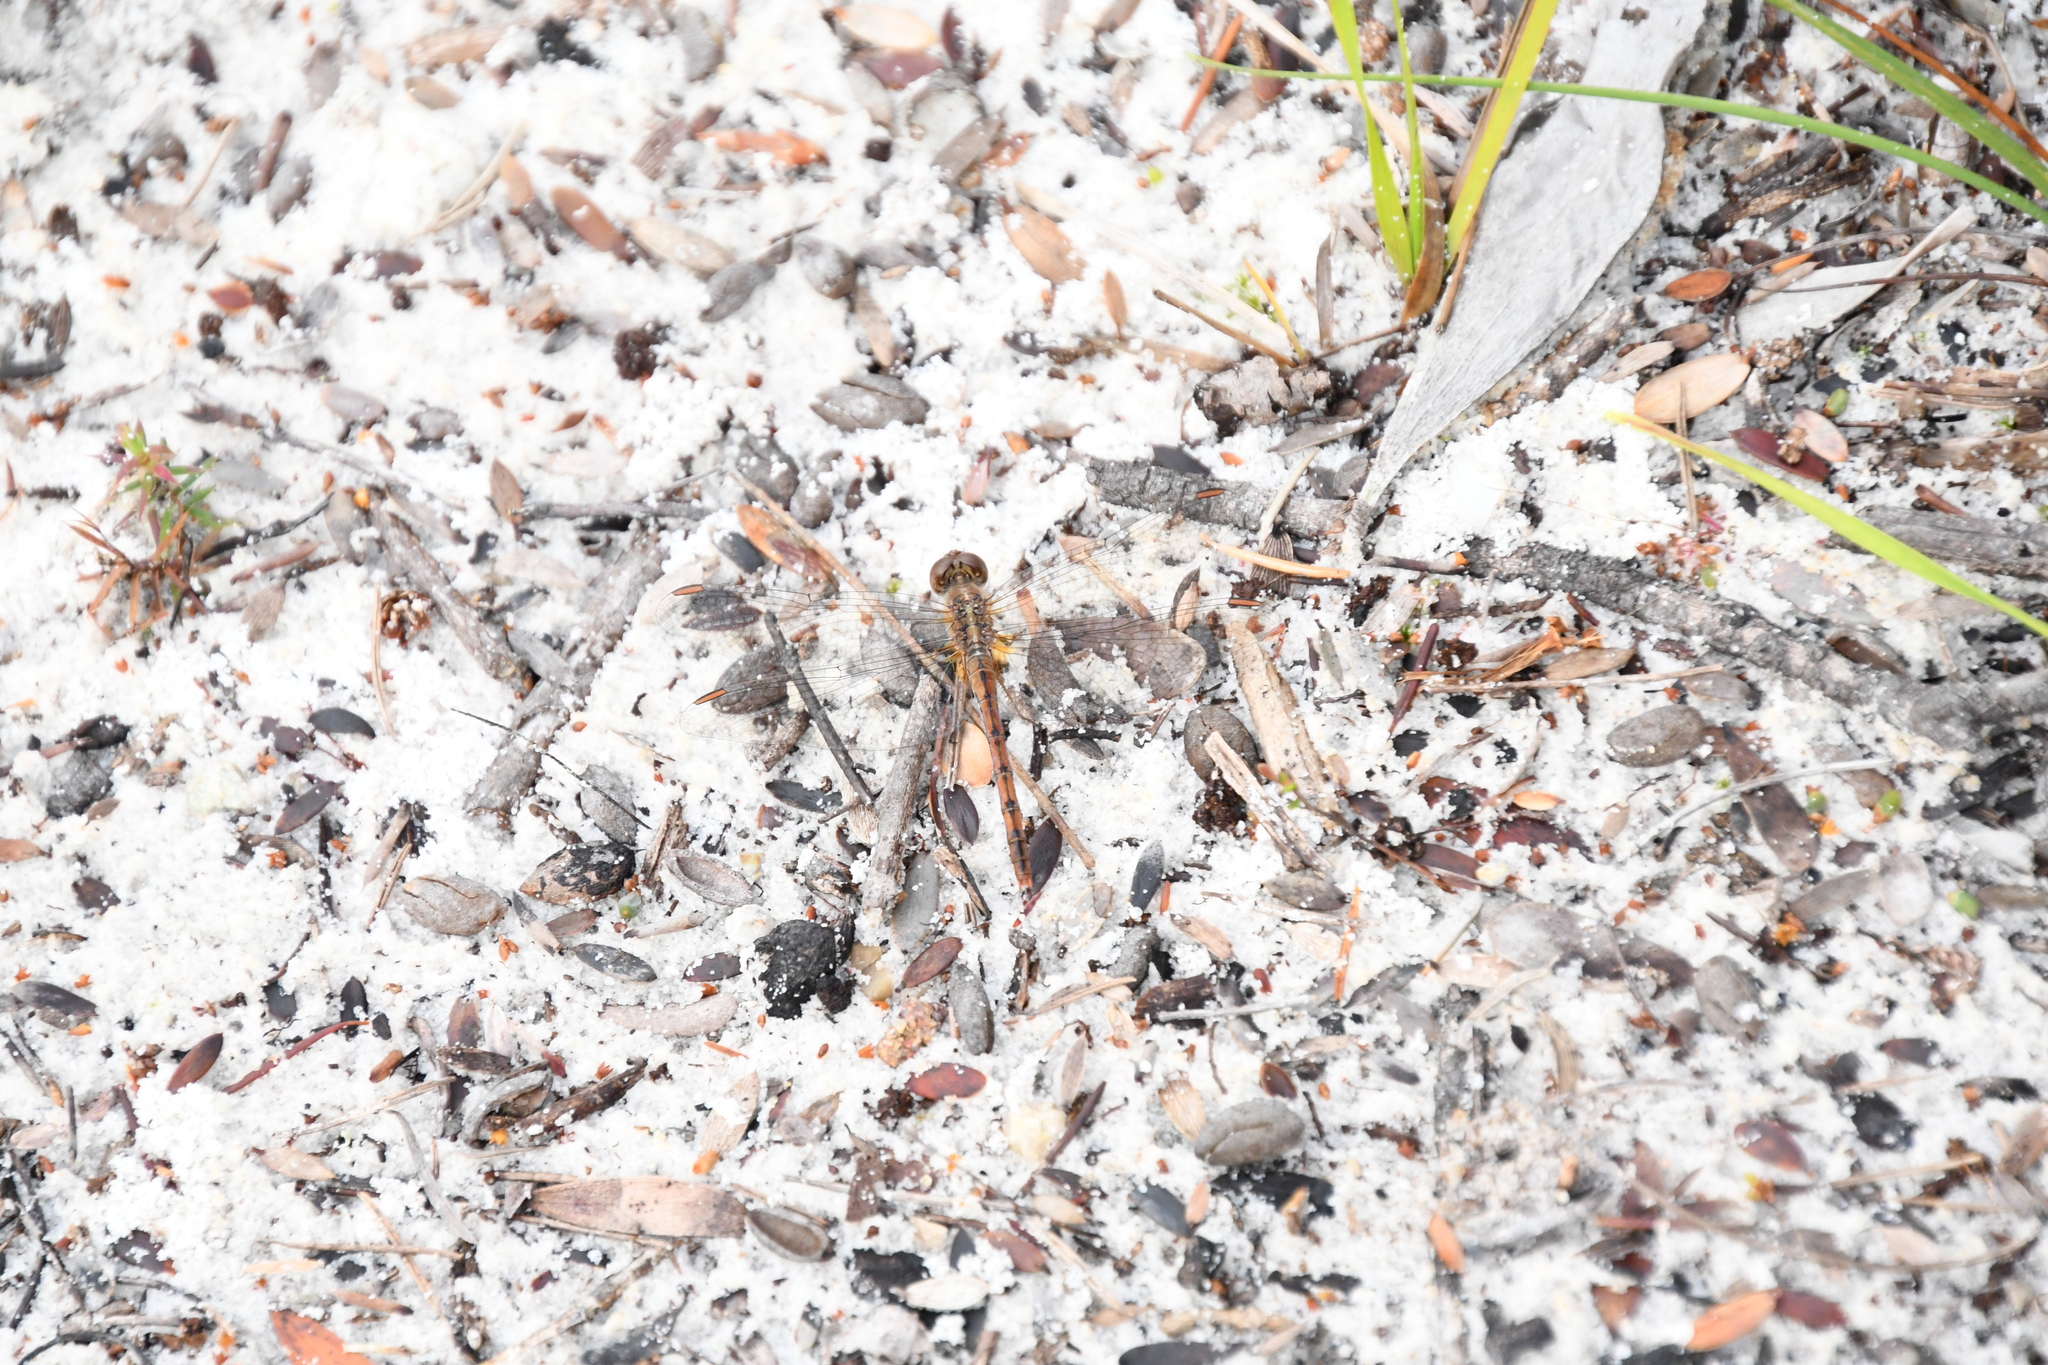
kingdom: Animalia
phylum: Arthropoda
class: Insecta
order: Odonata
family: Libellulidae
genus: Diplacodes
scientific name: Diplacodes bipunctata
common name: Red percher dragonfly
